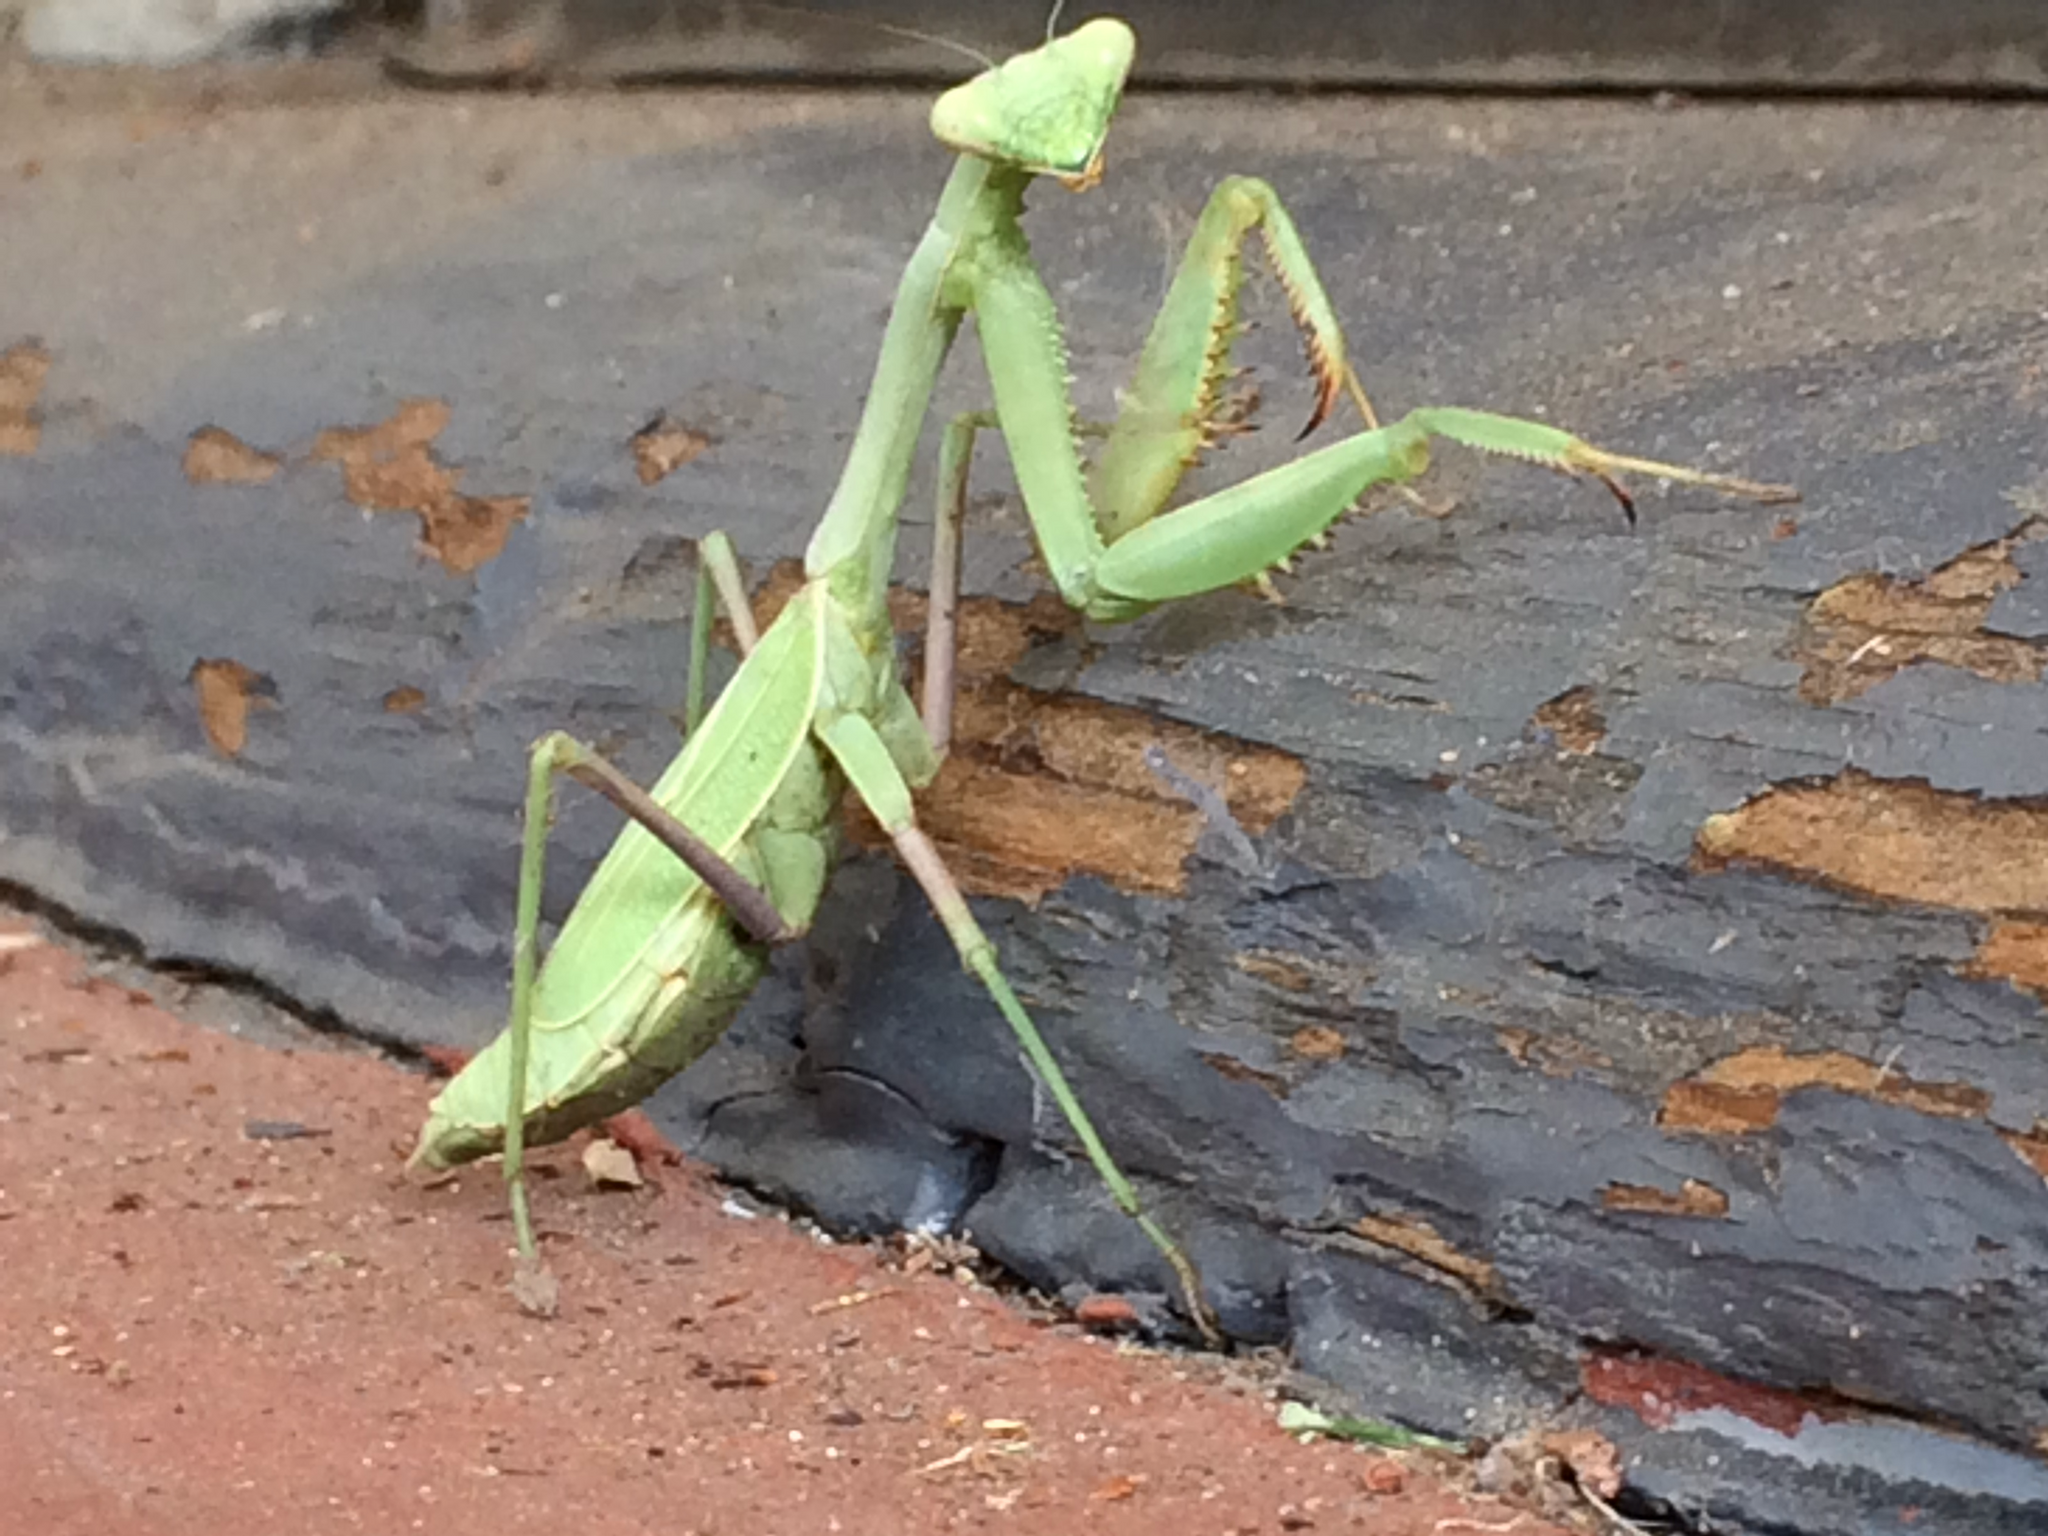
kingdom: Animalia
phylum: Arthropoda
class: Insecta
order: Mantodea
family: Mantidae
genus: Stagmomantis
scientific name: Stagmomantis limbata
